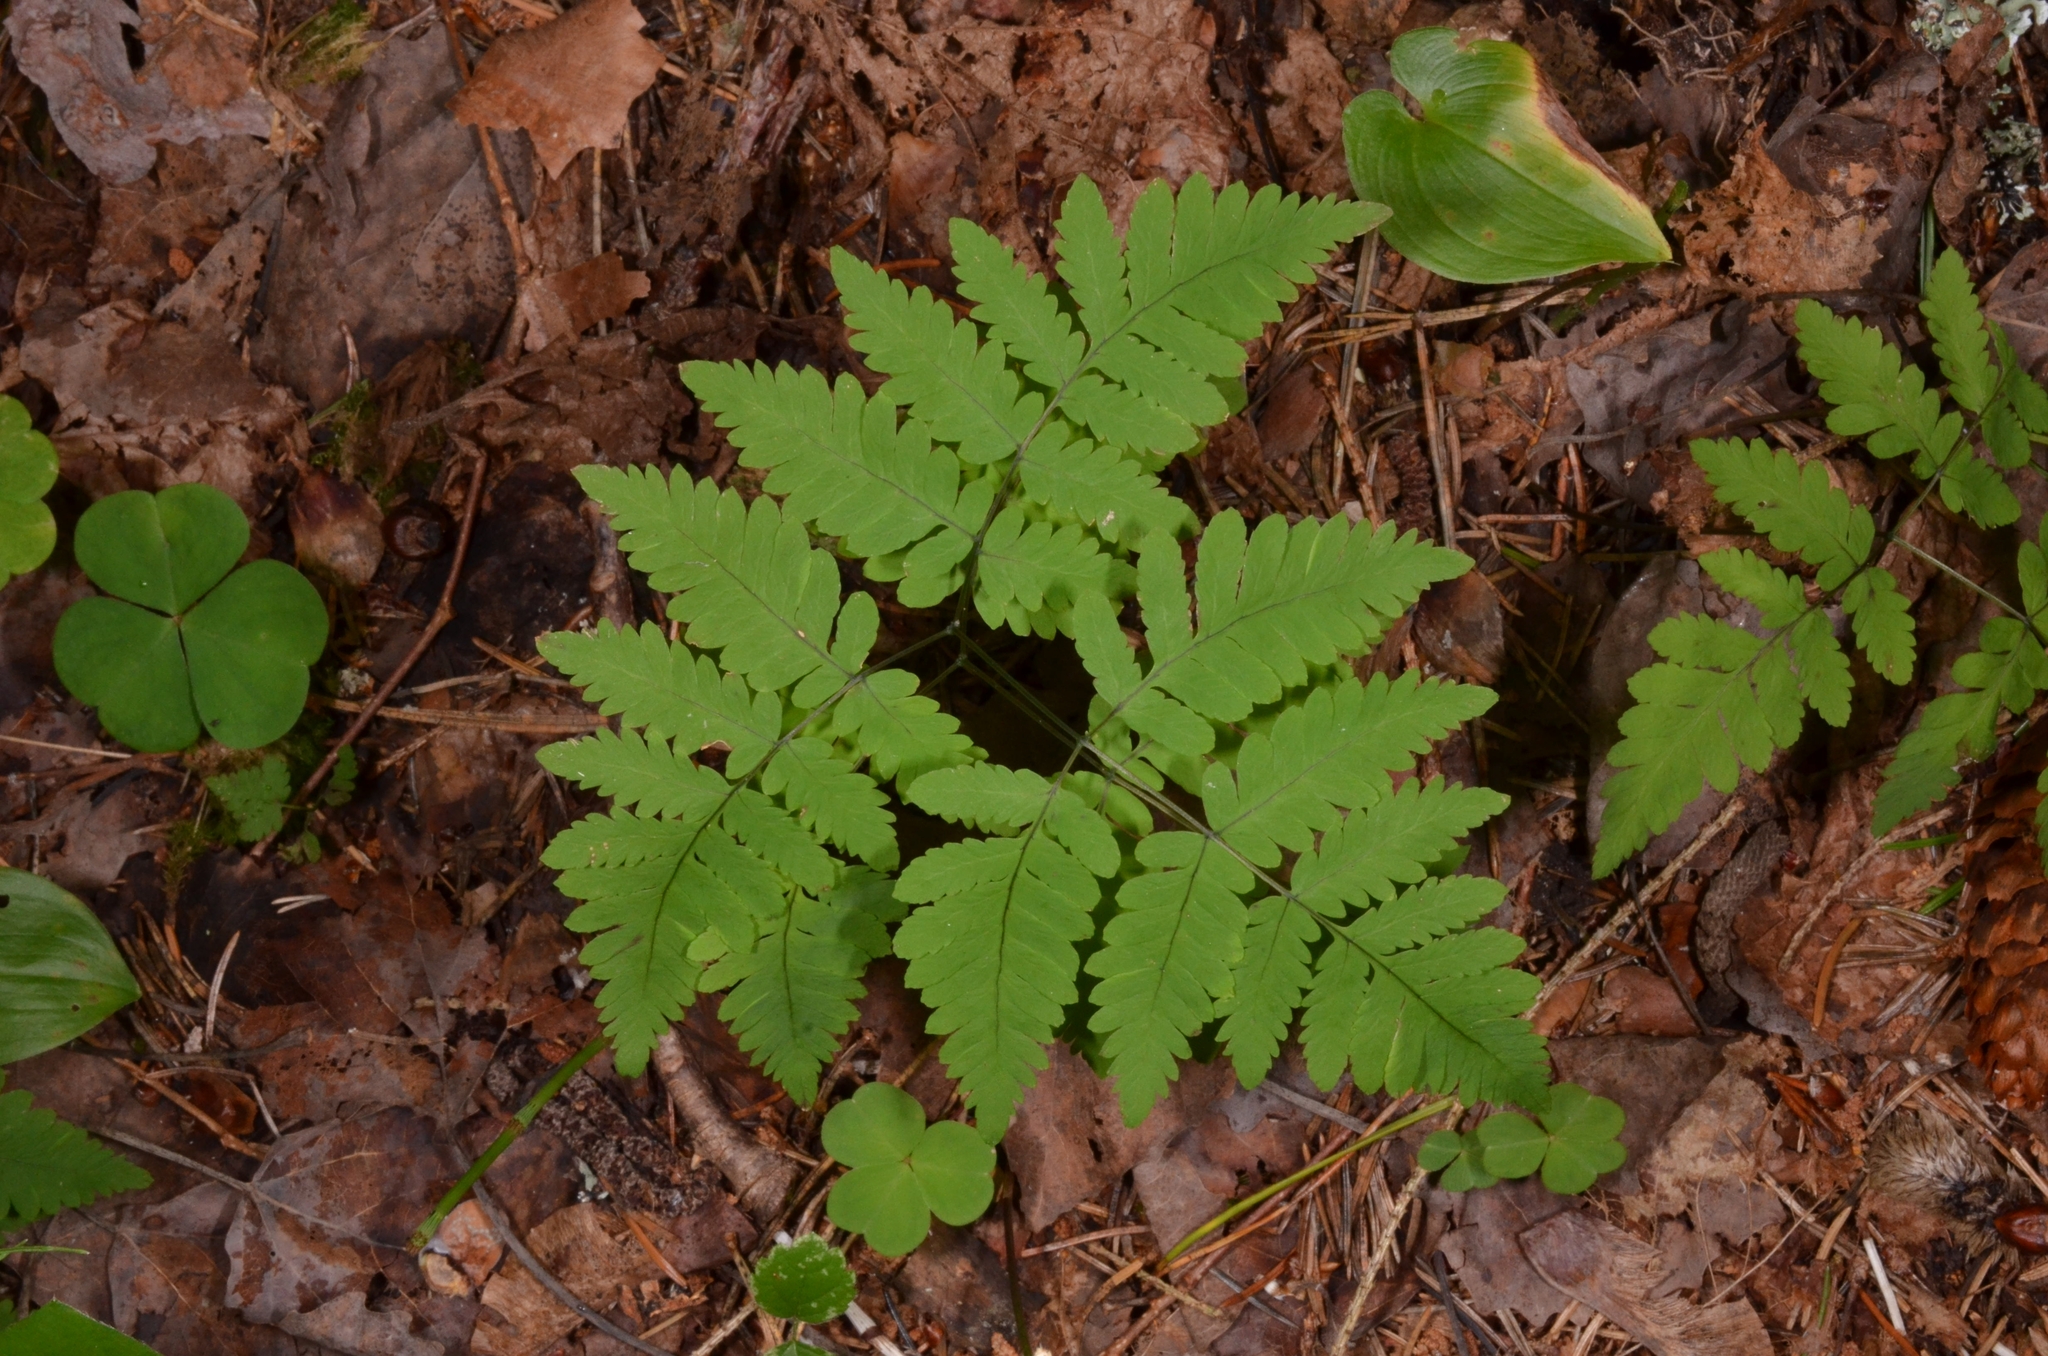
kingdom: Plantae
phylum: Tracheophyta
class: Polypodiopsida
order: Polypodiales
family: Cystopteridaceae
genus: Gymnocarpium
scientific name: Gymnocarpium dryopteris
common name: Oak fern
